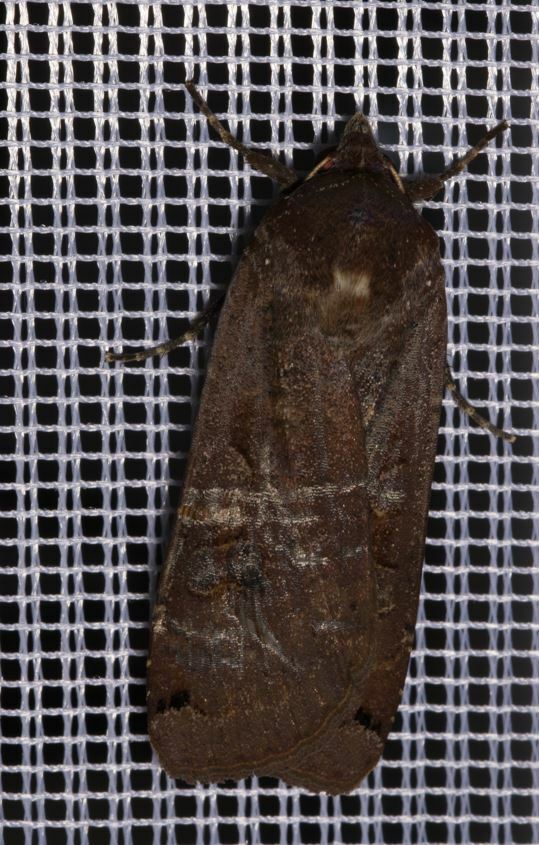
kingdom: Animalia
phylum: Arthropoda
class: Insecta
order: Lepidoptera
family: Noctuidae
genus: Noctua
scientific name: Noctua pronuba
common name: Large yellow underwing
